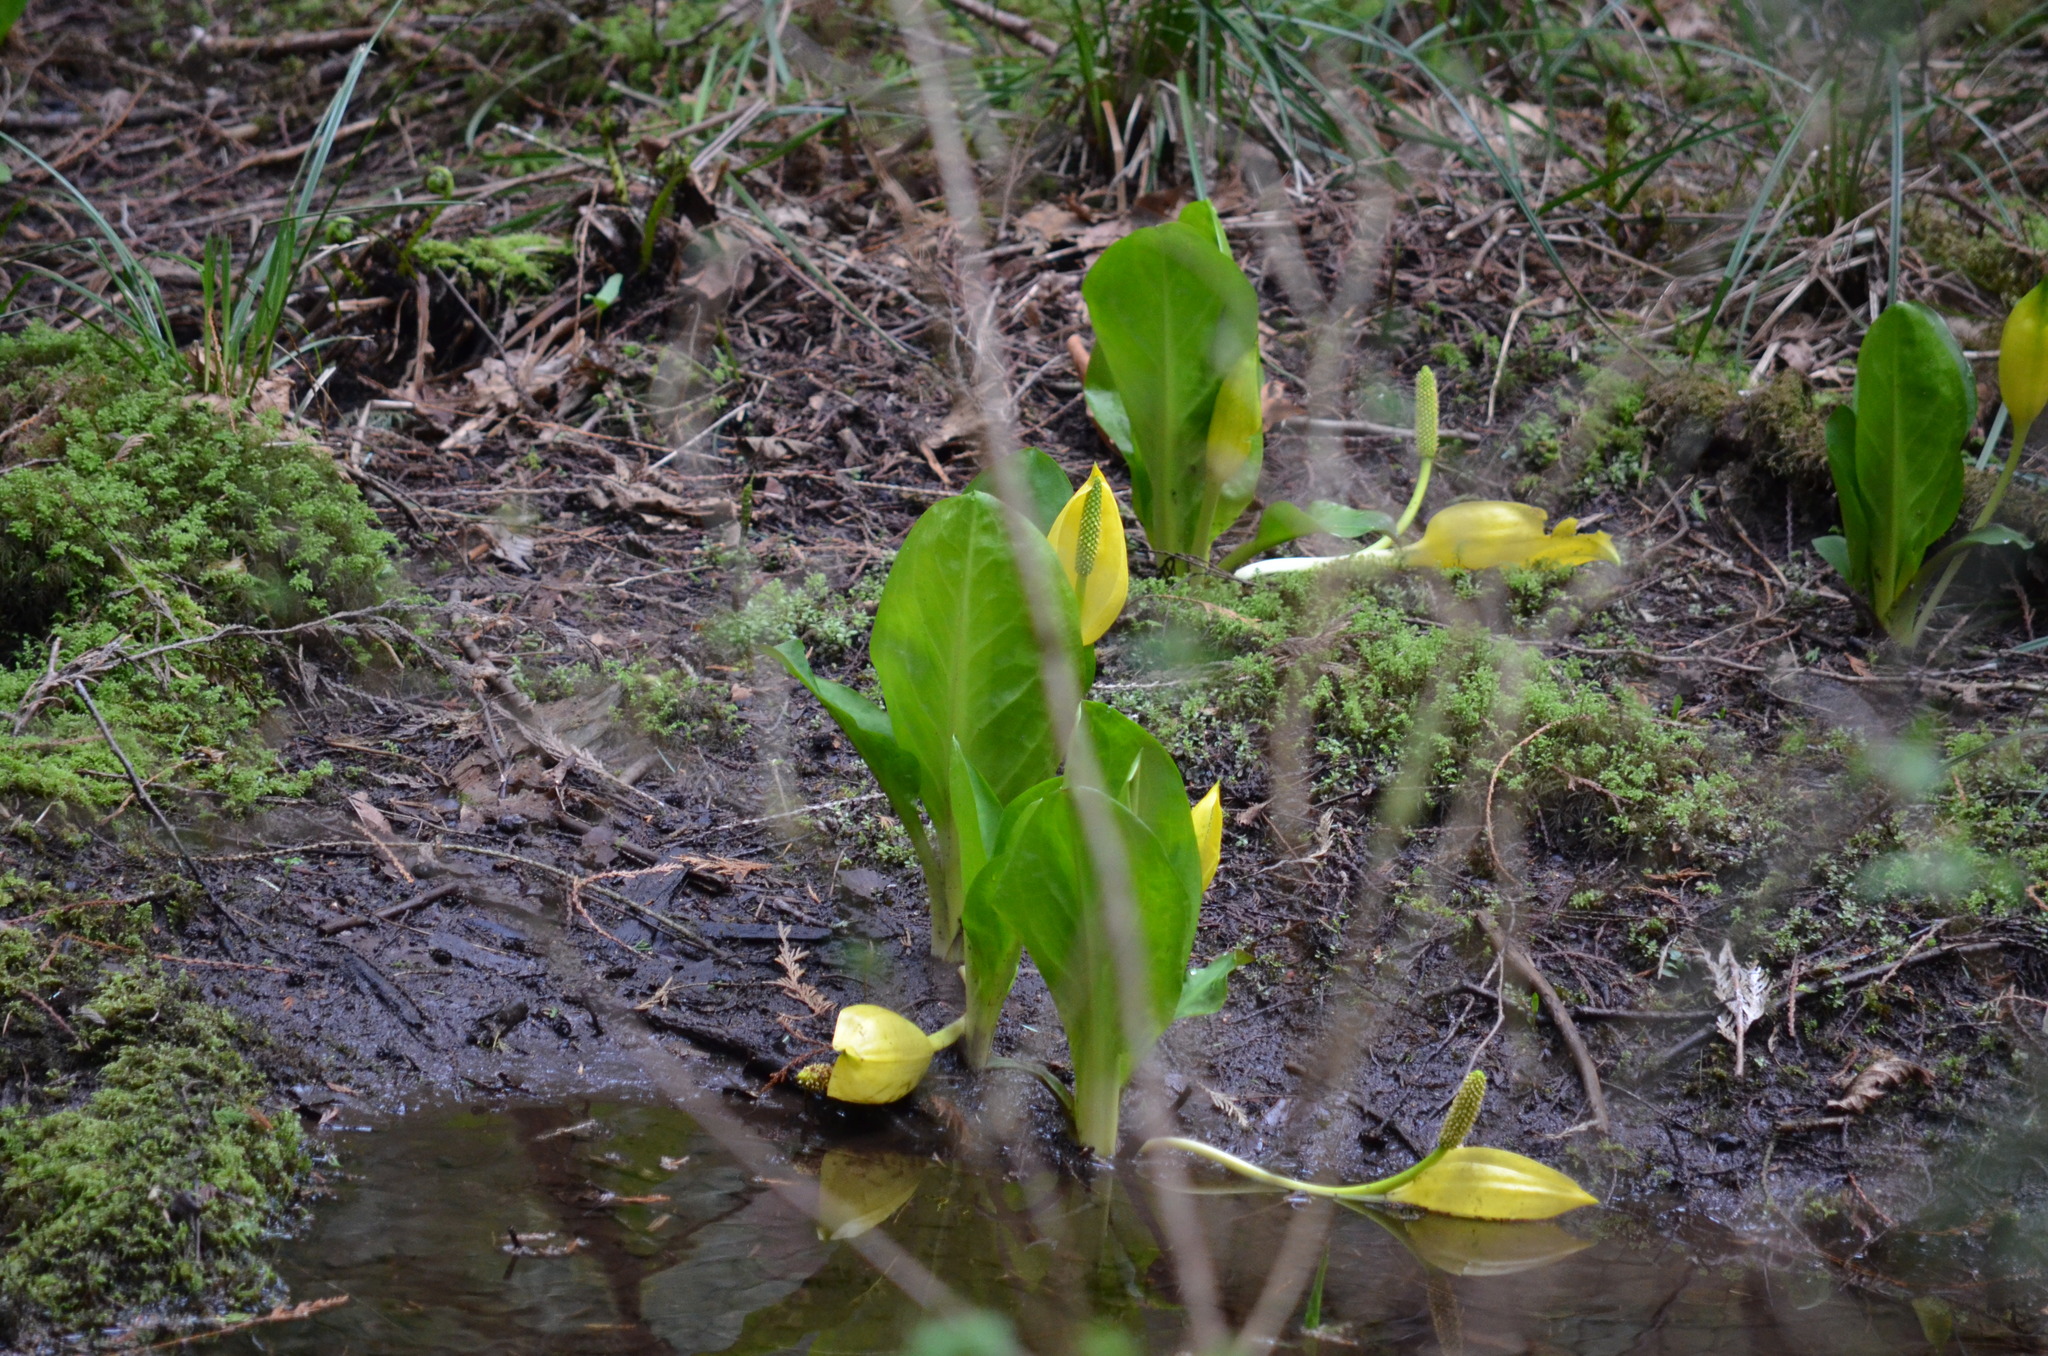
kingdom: Plantae
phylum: Tracheophyta
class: Liliopsida
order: Alismatales
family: Araceae
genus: Lysichiton
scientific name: Lysichiton americanus
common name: American skunk cabbage
